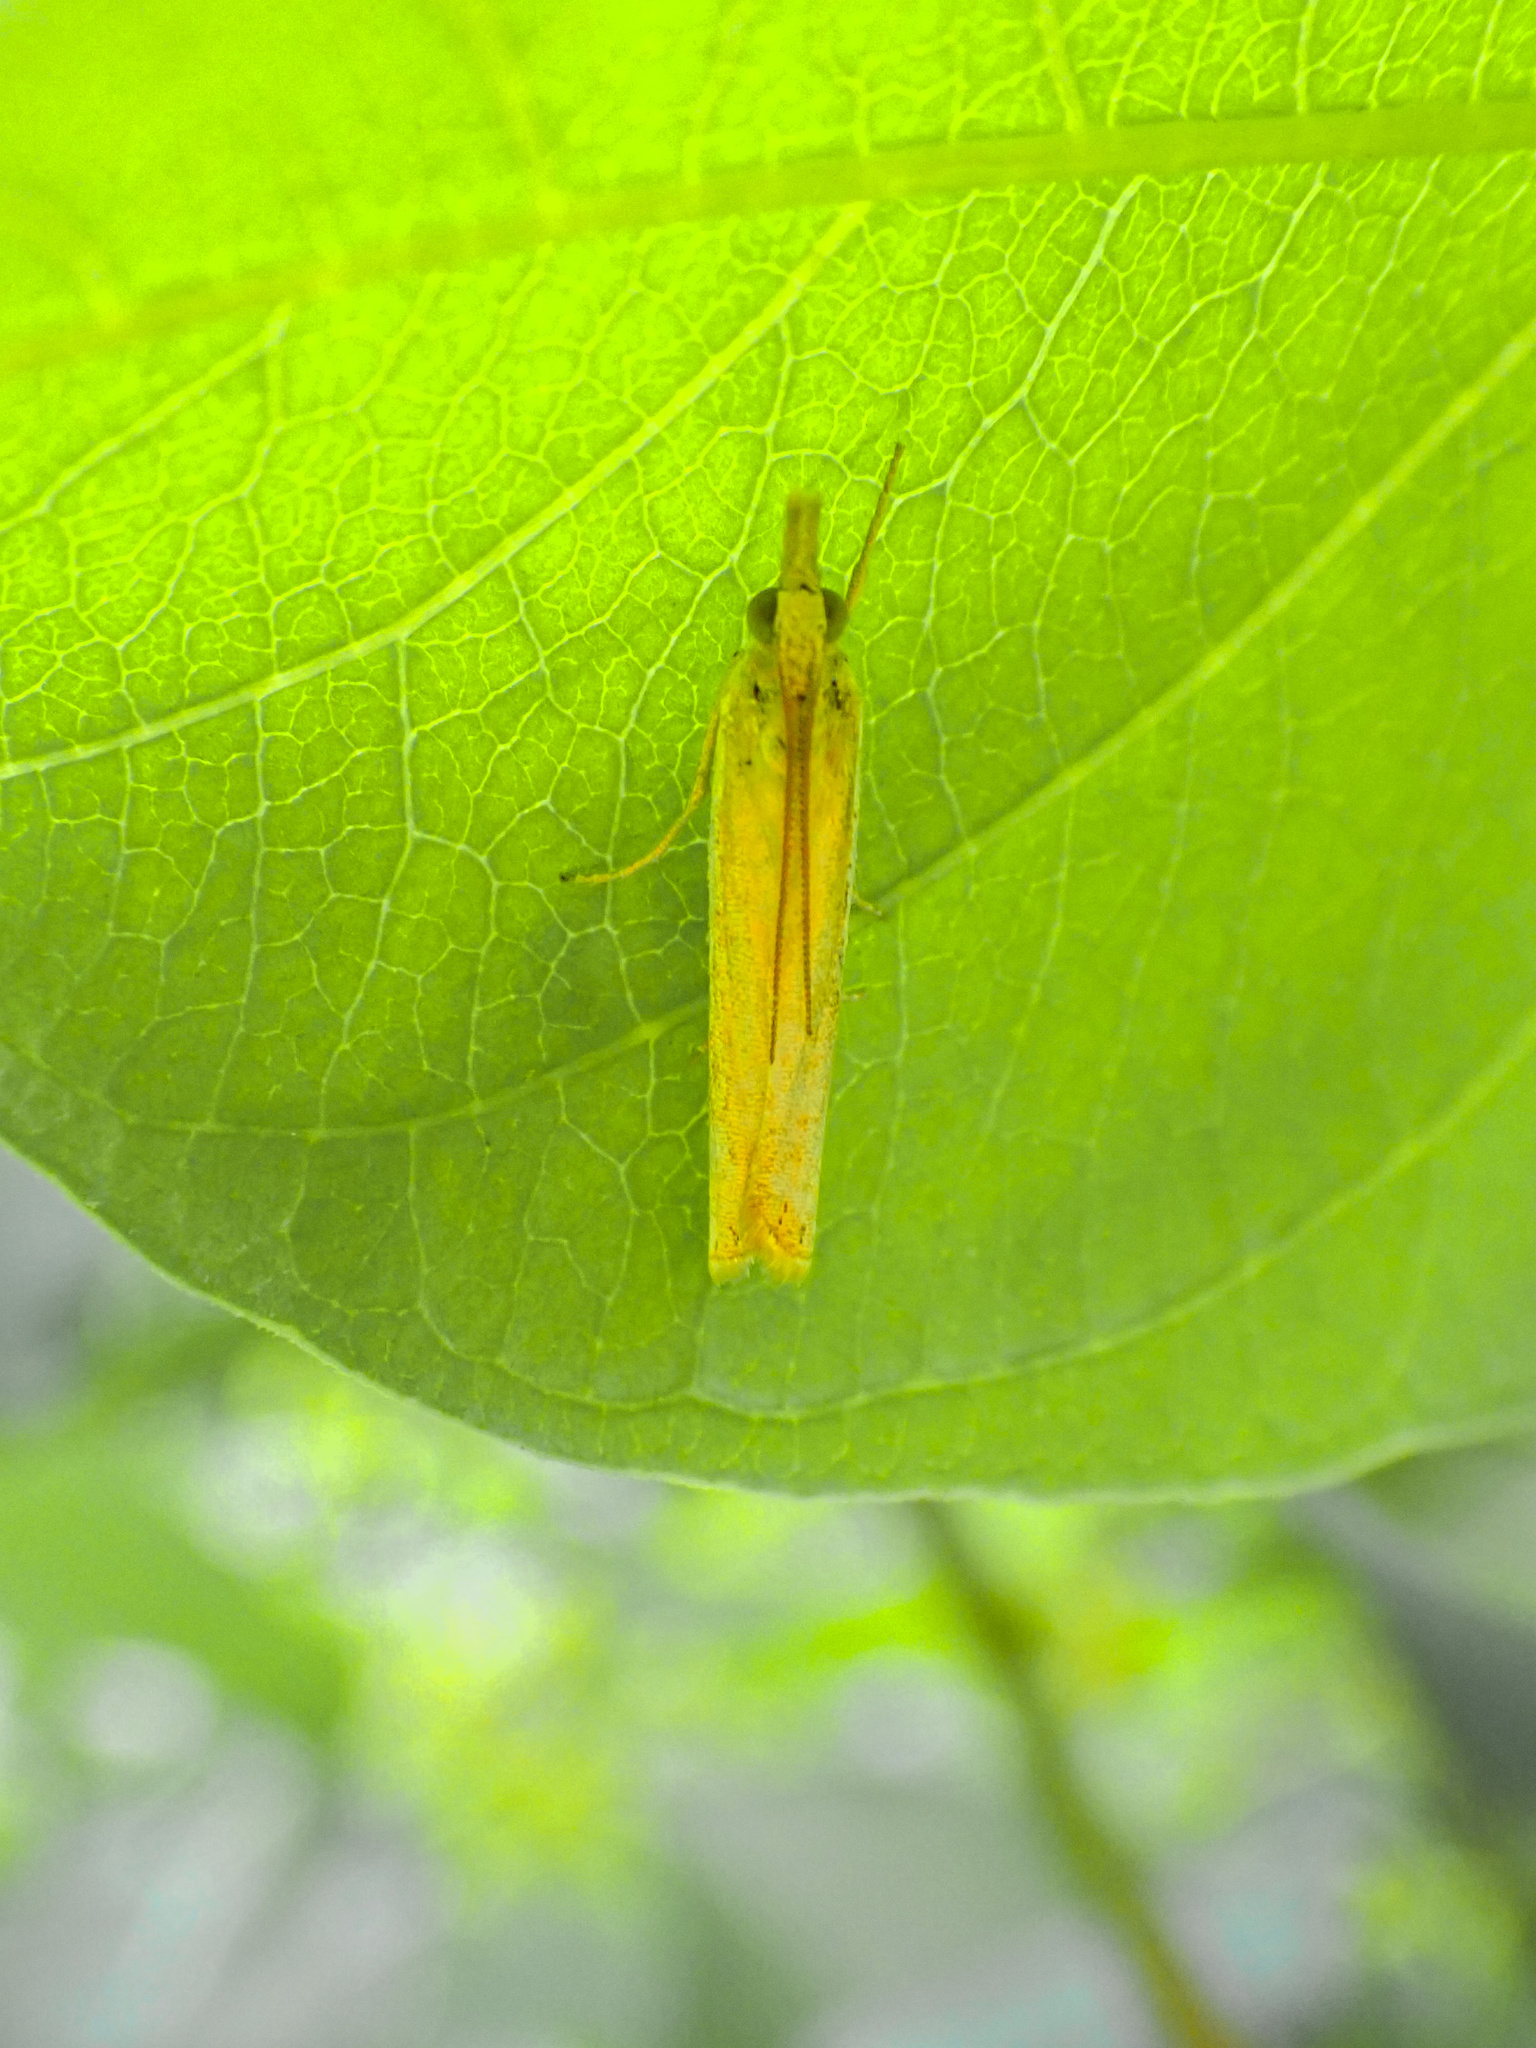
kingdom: Animalia
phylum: Arthropoda
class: Insecta
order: Lepidoptera
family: Crambidae
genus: Crambus
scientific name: Crambus
